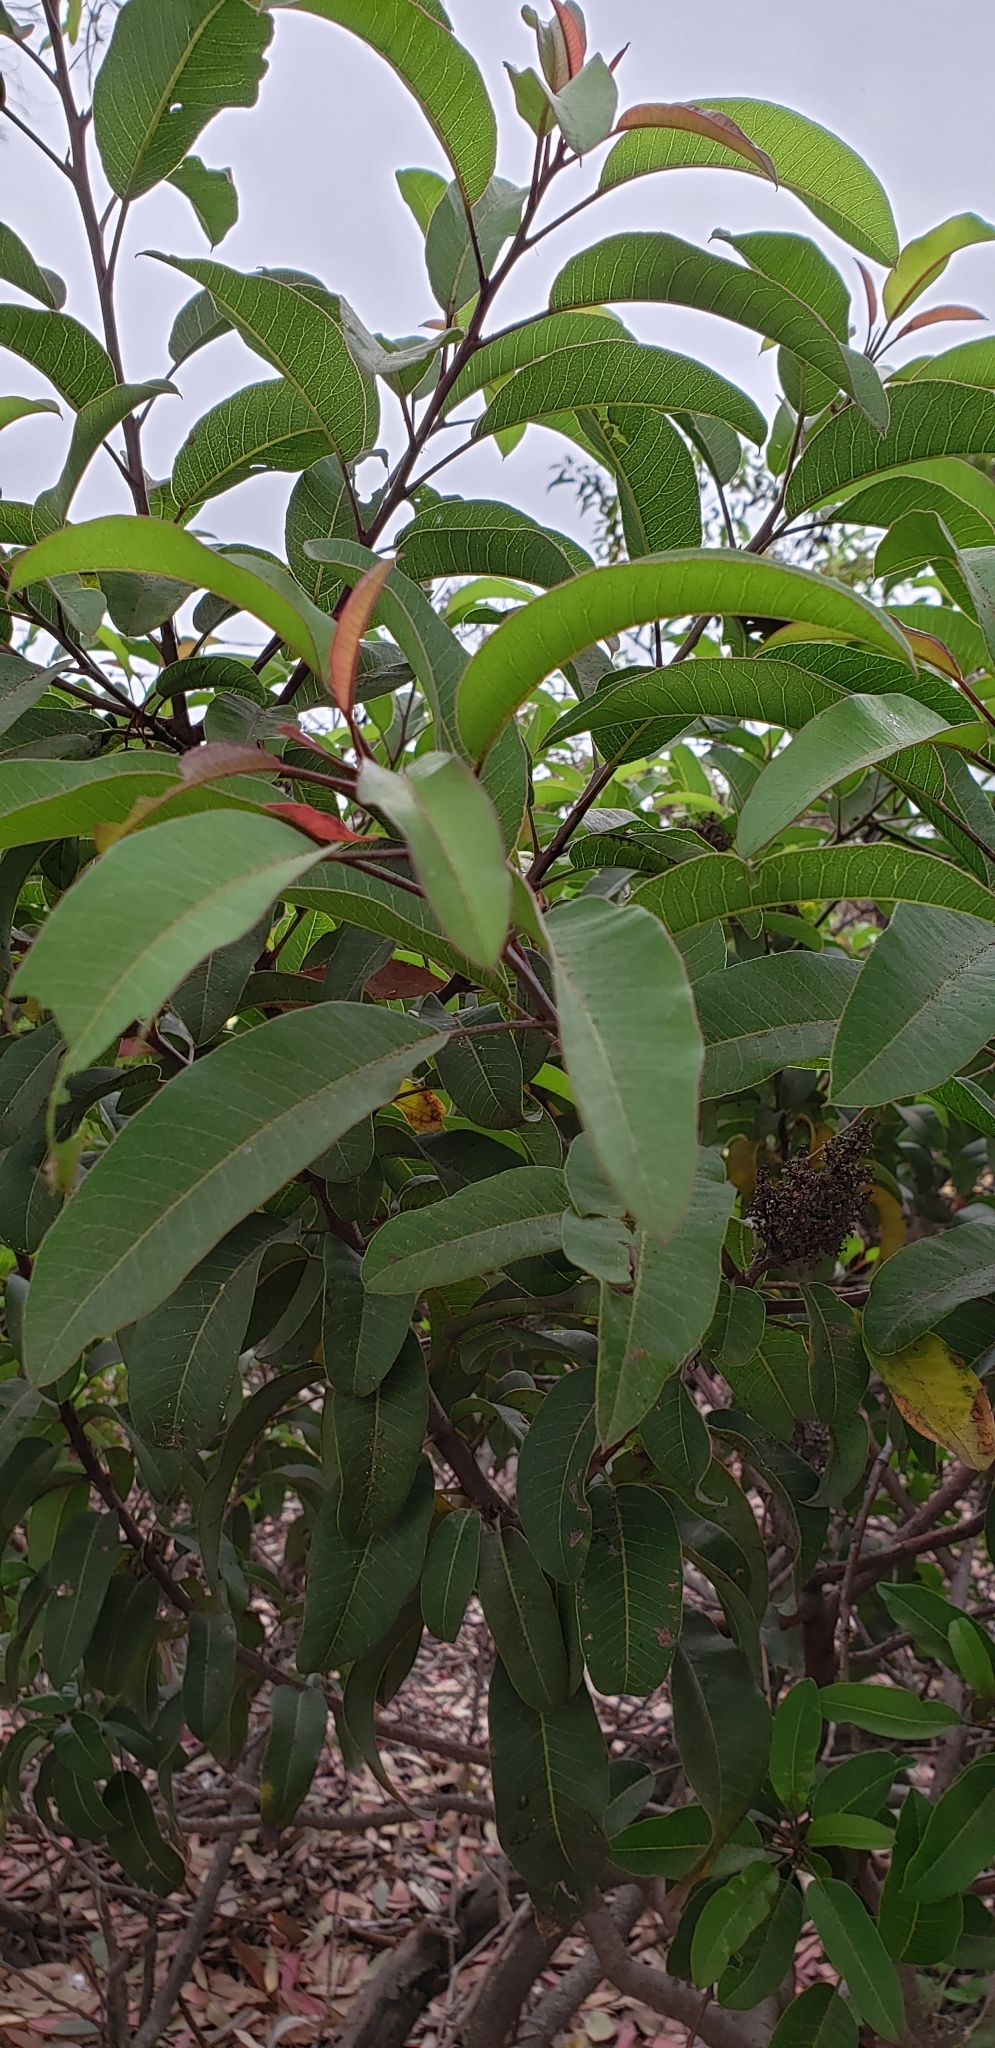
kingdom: Plantae
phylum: Tracheophyta
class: Magnoliopsida
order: Sapindales
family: Anacardiaceae
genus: Malosma
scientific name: Malosma laurina
